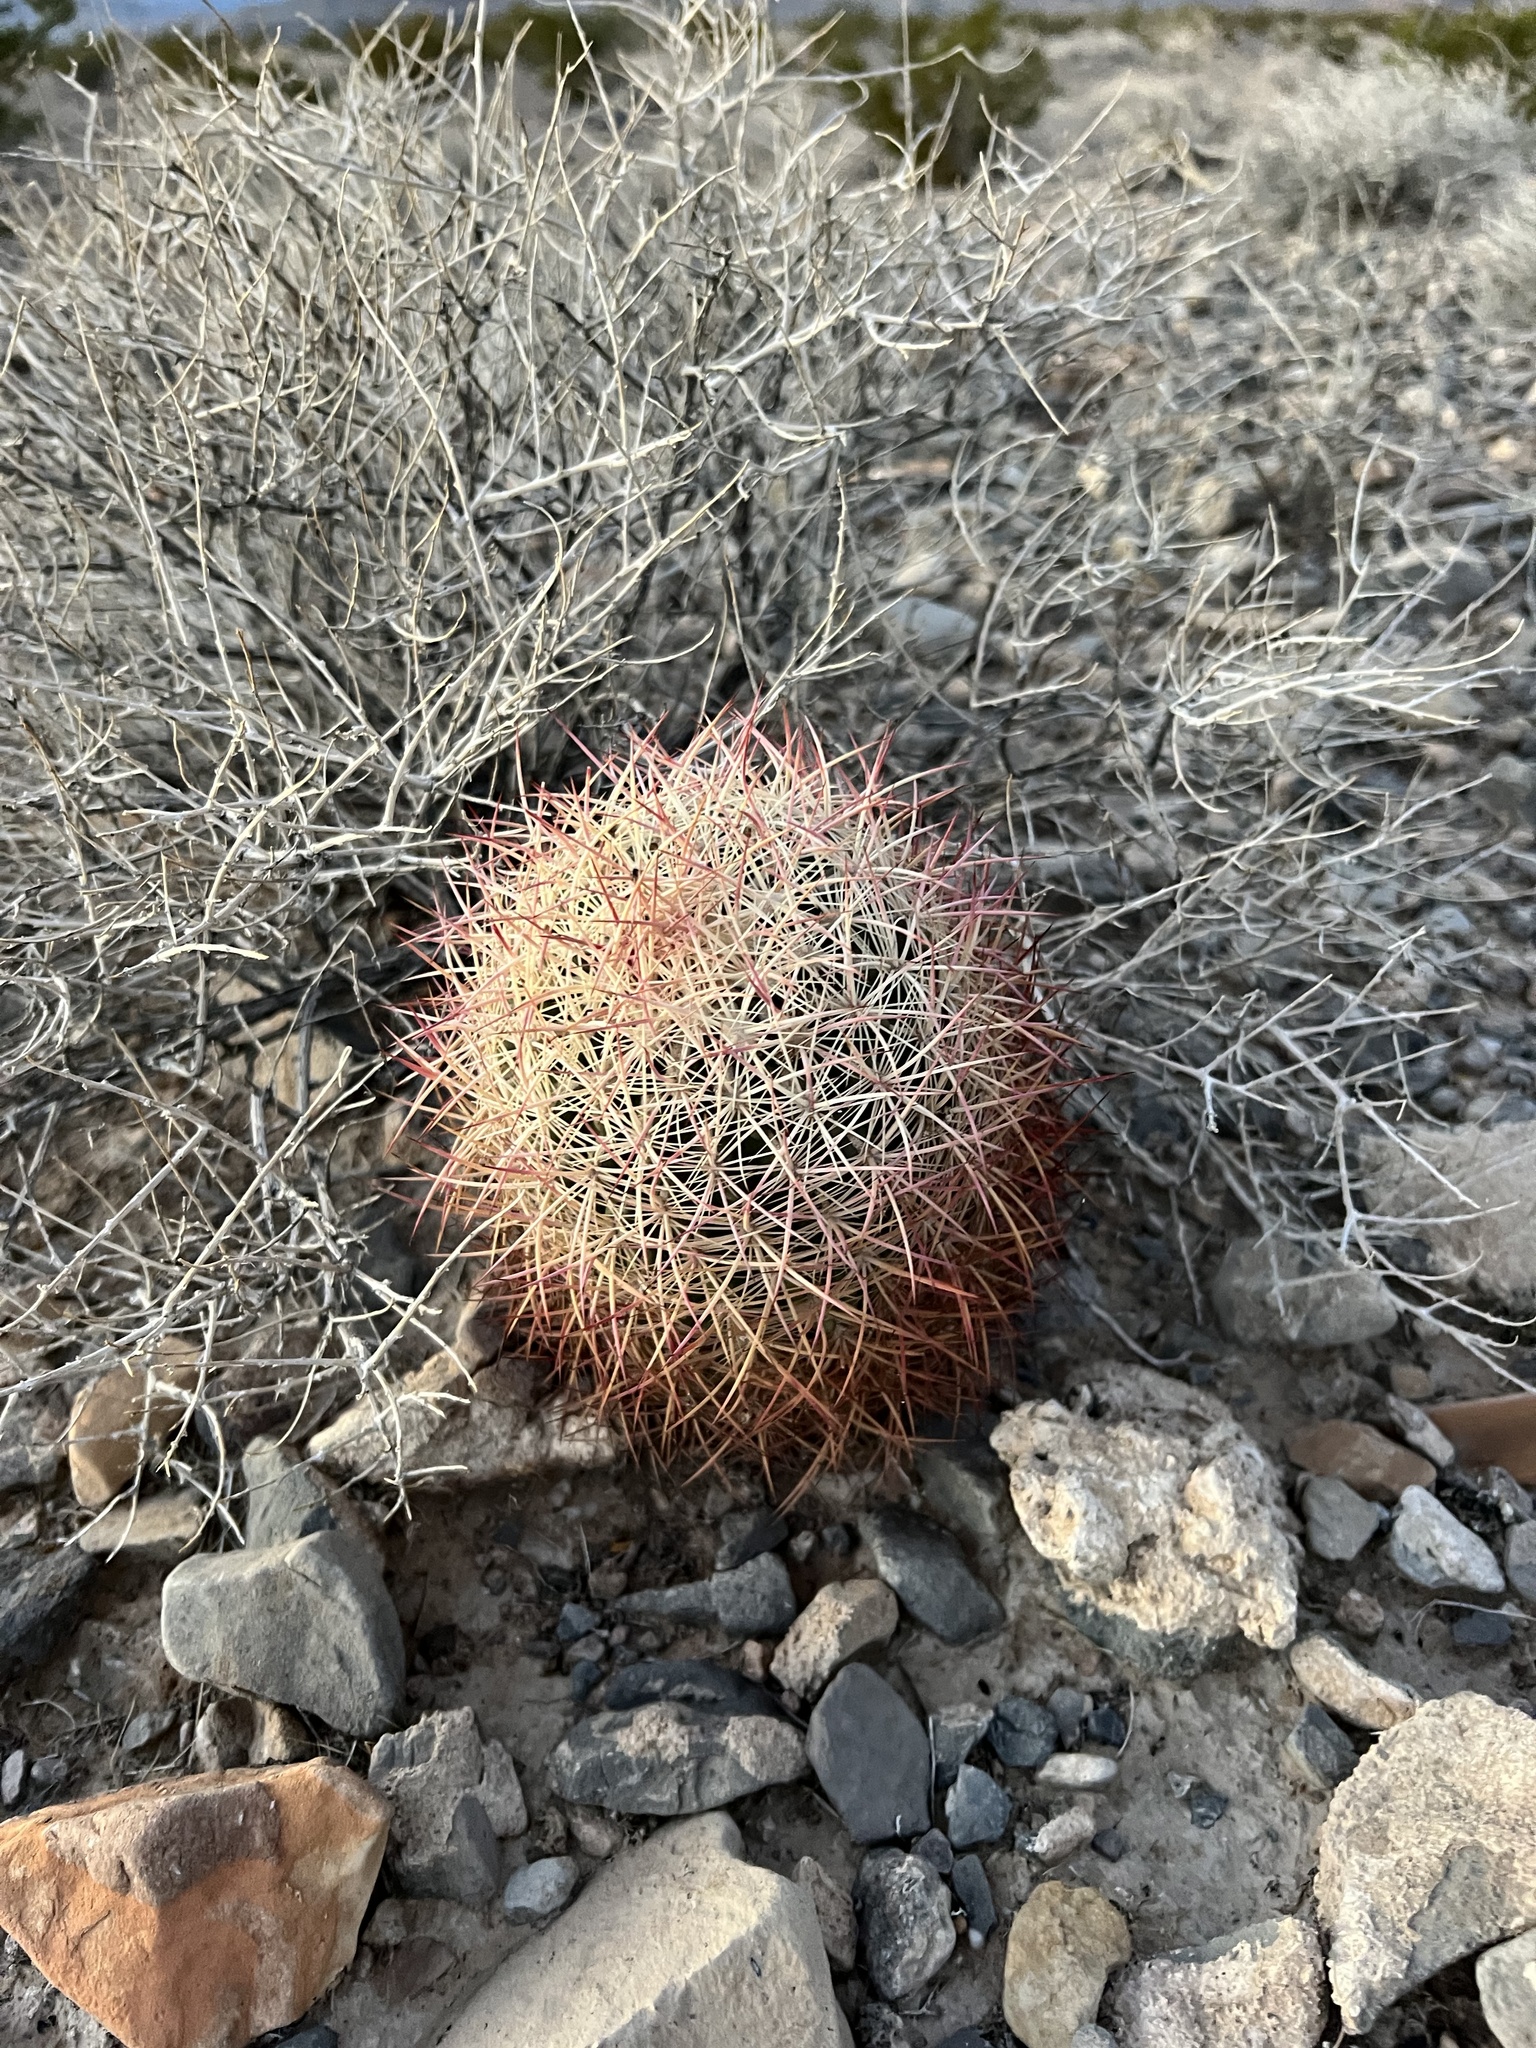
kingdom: Plantae
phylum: Tracheophyta
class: Magnoliopsida
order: Caryophyllales
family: Cactaceae
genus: Sclerocactus
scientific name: Sclerocactus johnsonii
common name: Eight-spine fishhook cactus
